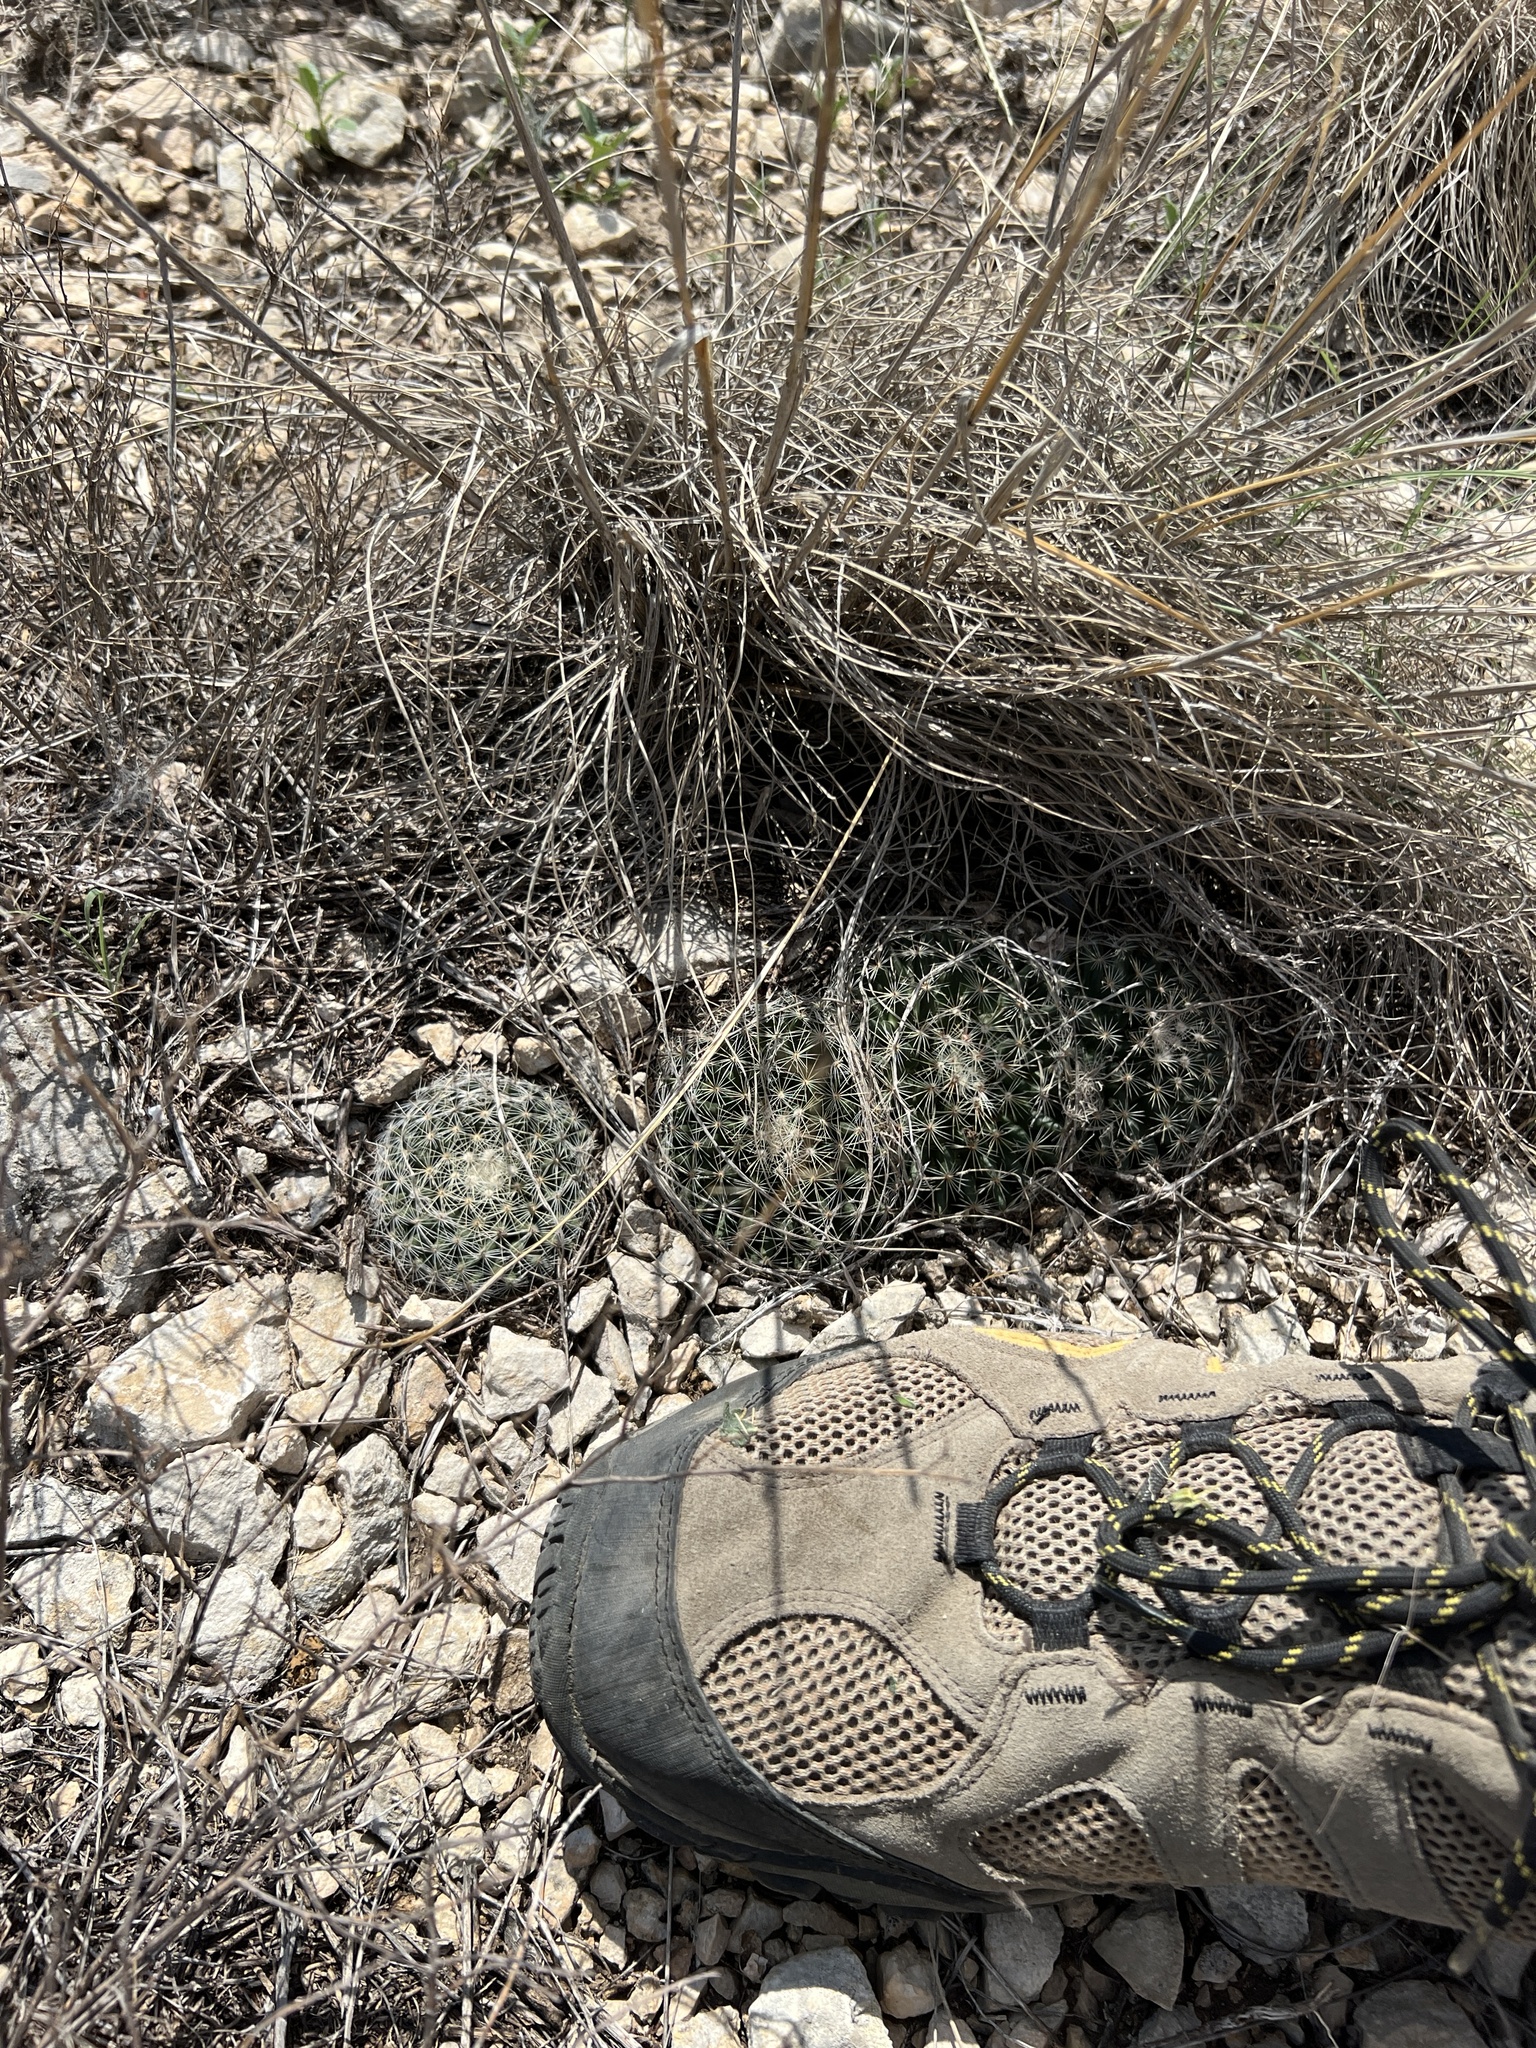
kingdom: Plantae
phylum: Tracheophyta
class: Magnoliopsida
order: Caryophyllales
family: Cactaceae
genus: Mammillaria
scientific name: Mammillaria heyderi
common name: Little nipple cactus
